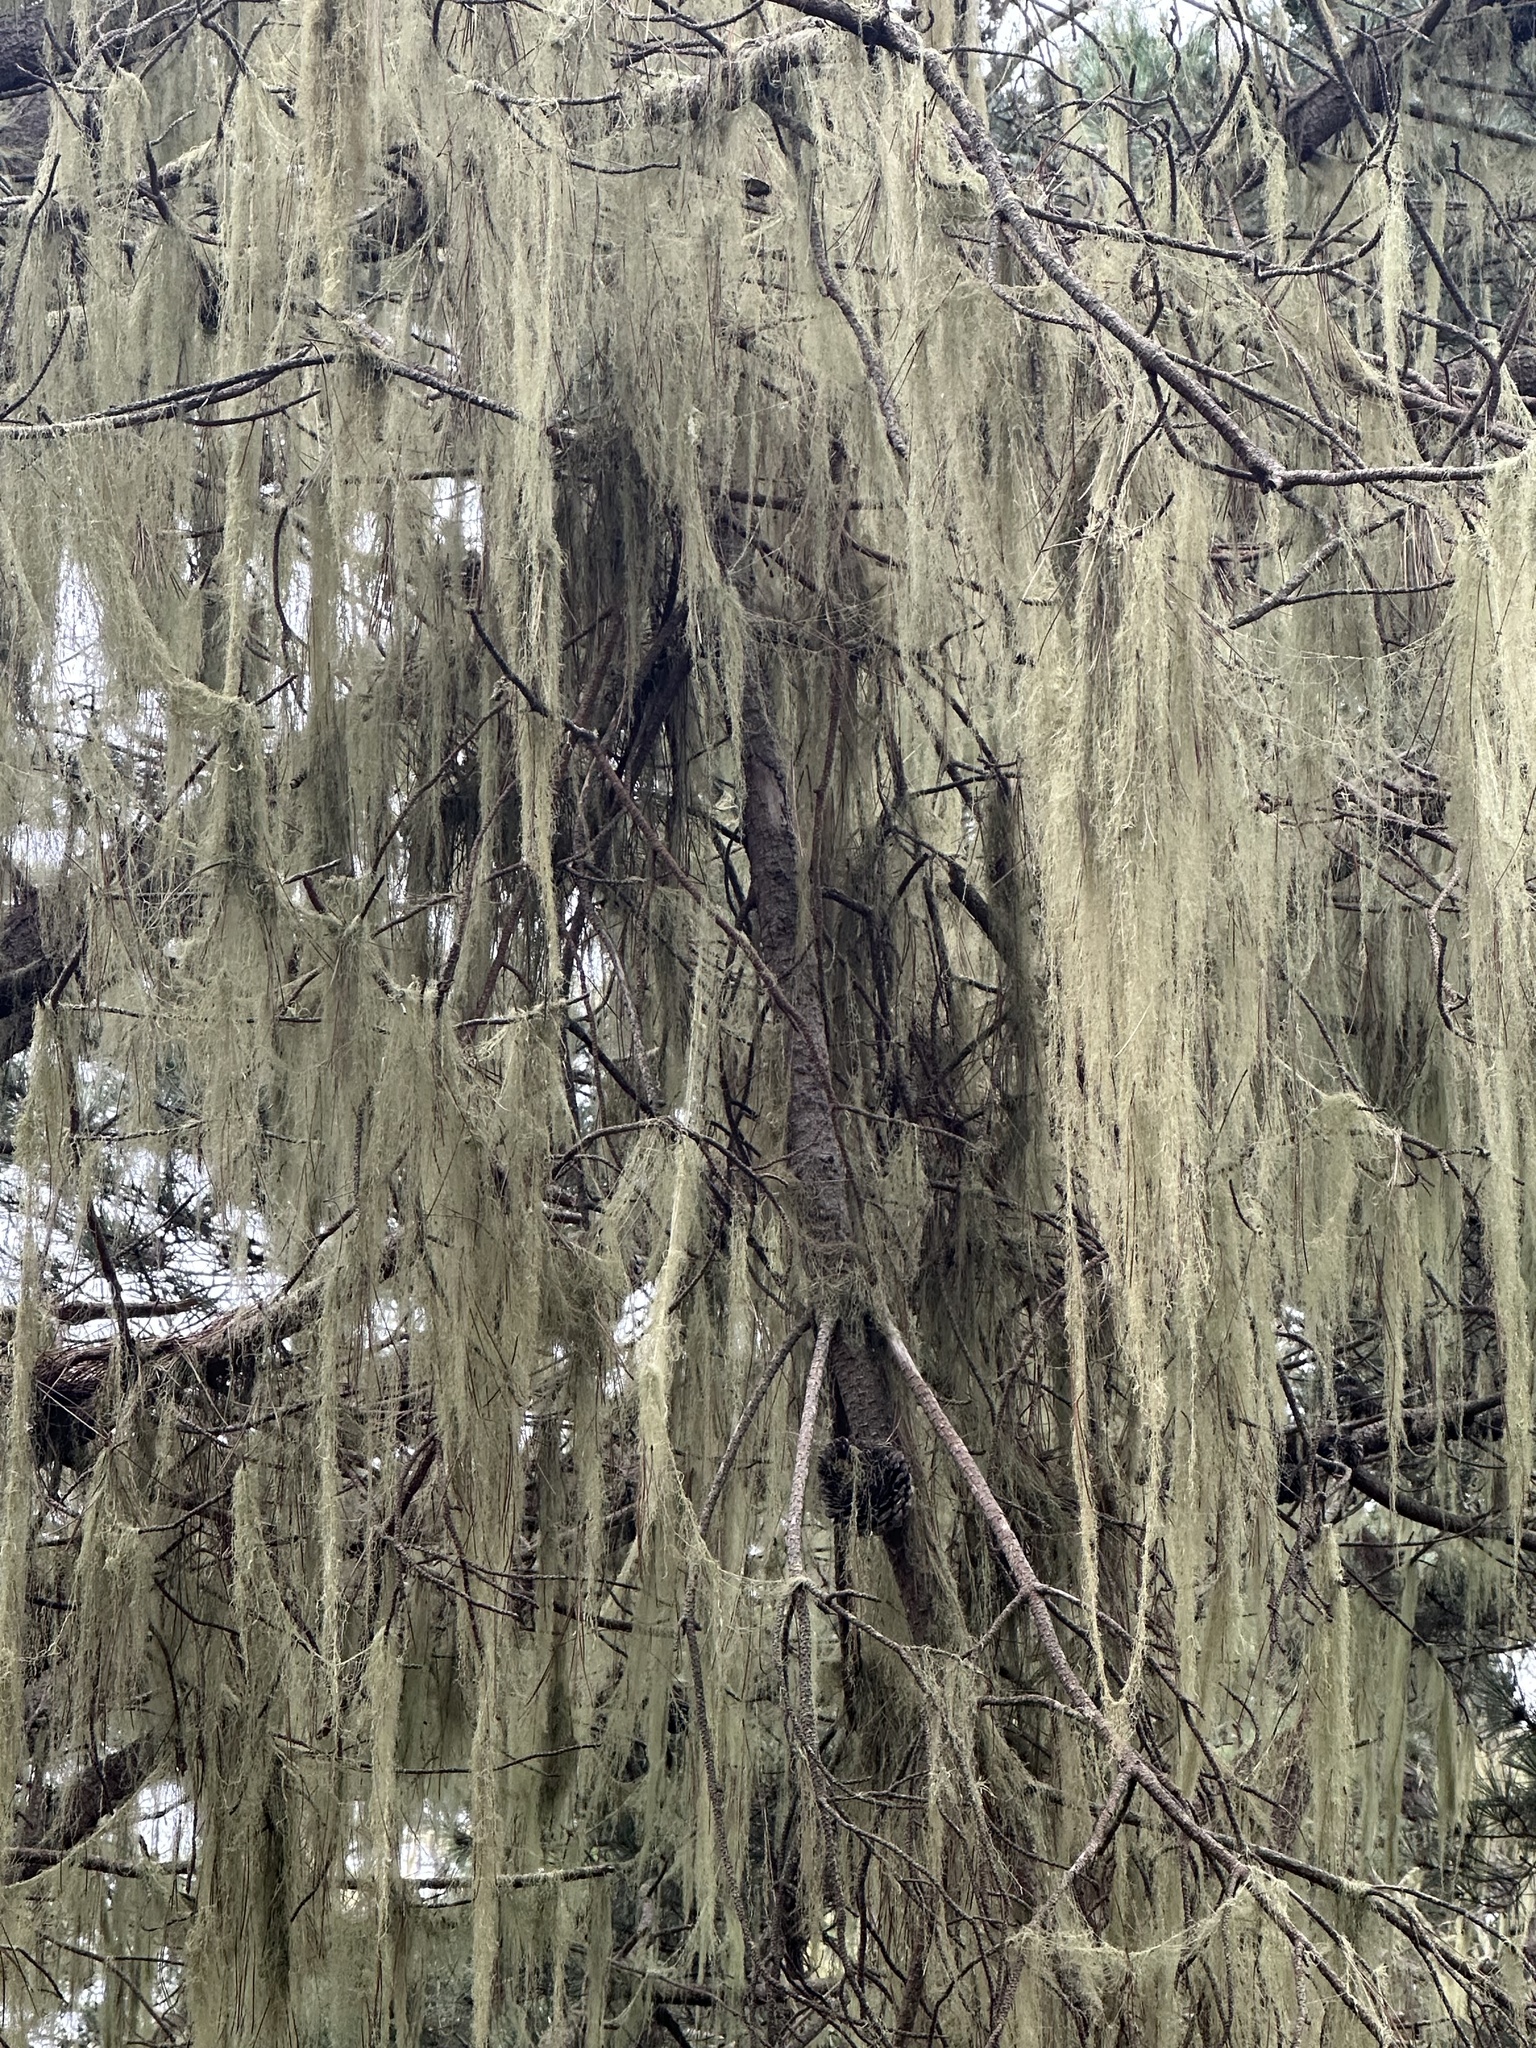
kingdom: Fungi
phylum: Ascomycota
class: Lecanoromycetes
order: Lecanorales
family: Ramalinaceae
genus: Ramalina
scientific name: Ramalina menziesii
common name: Lace lichen
